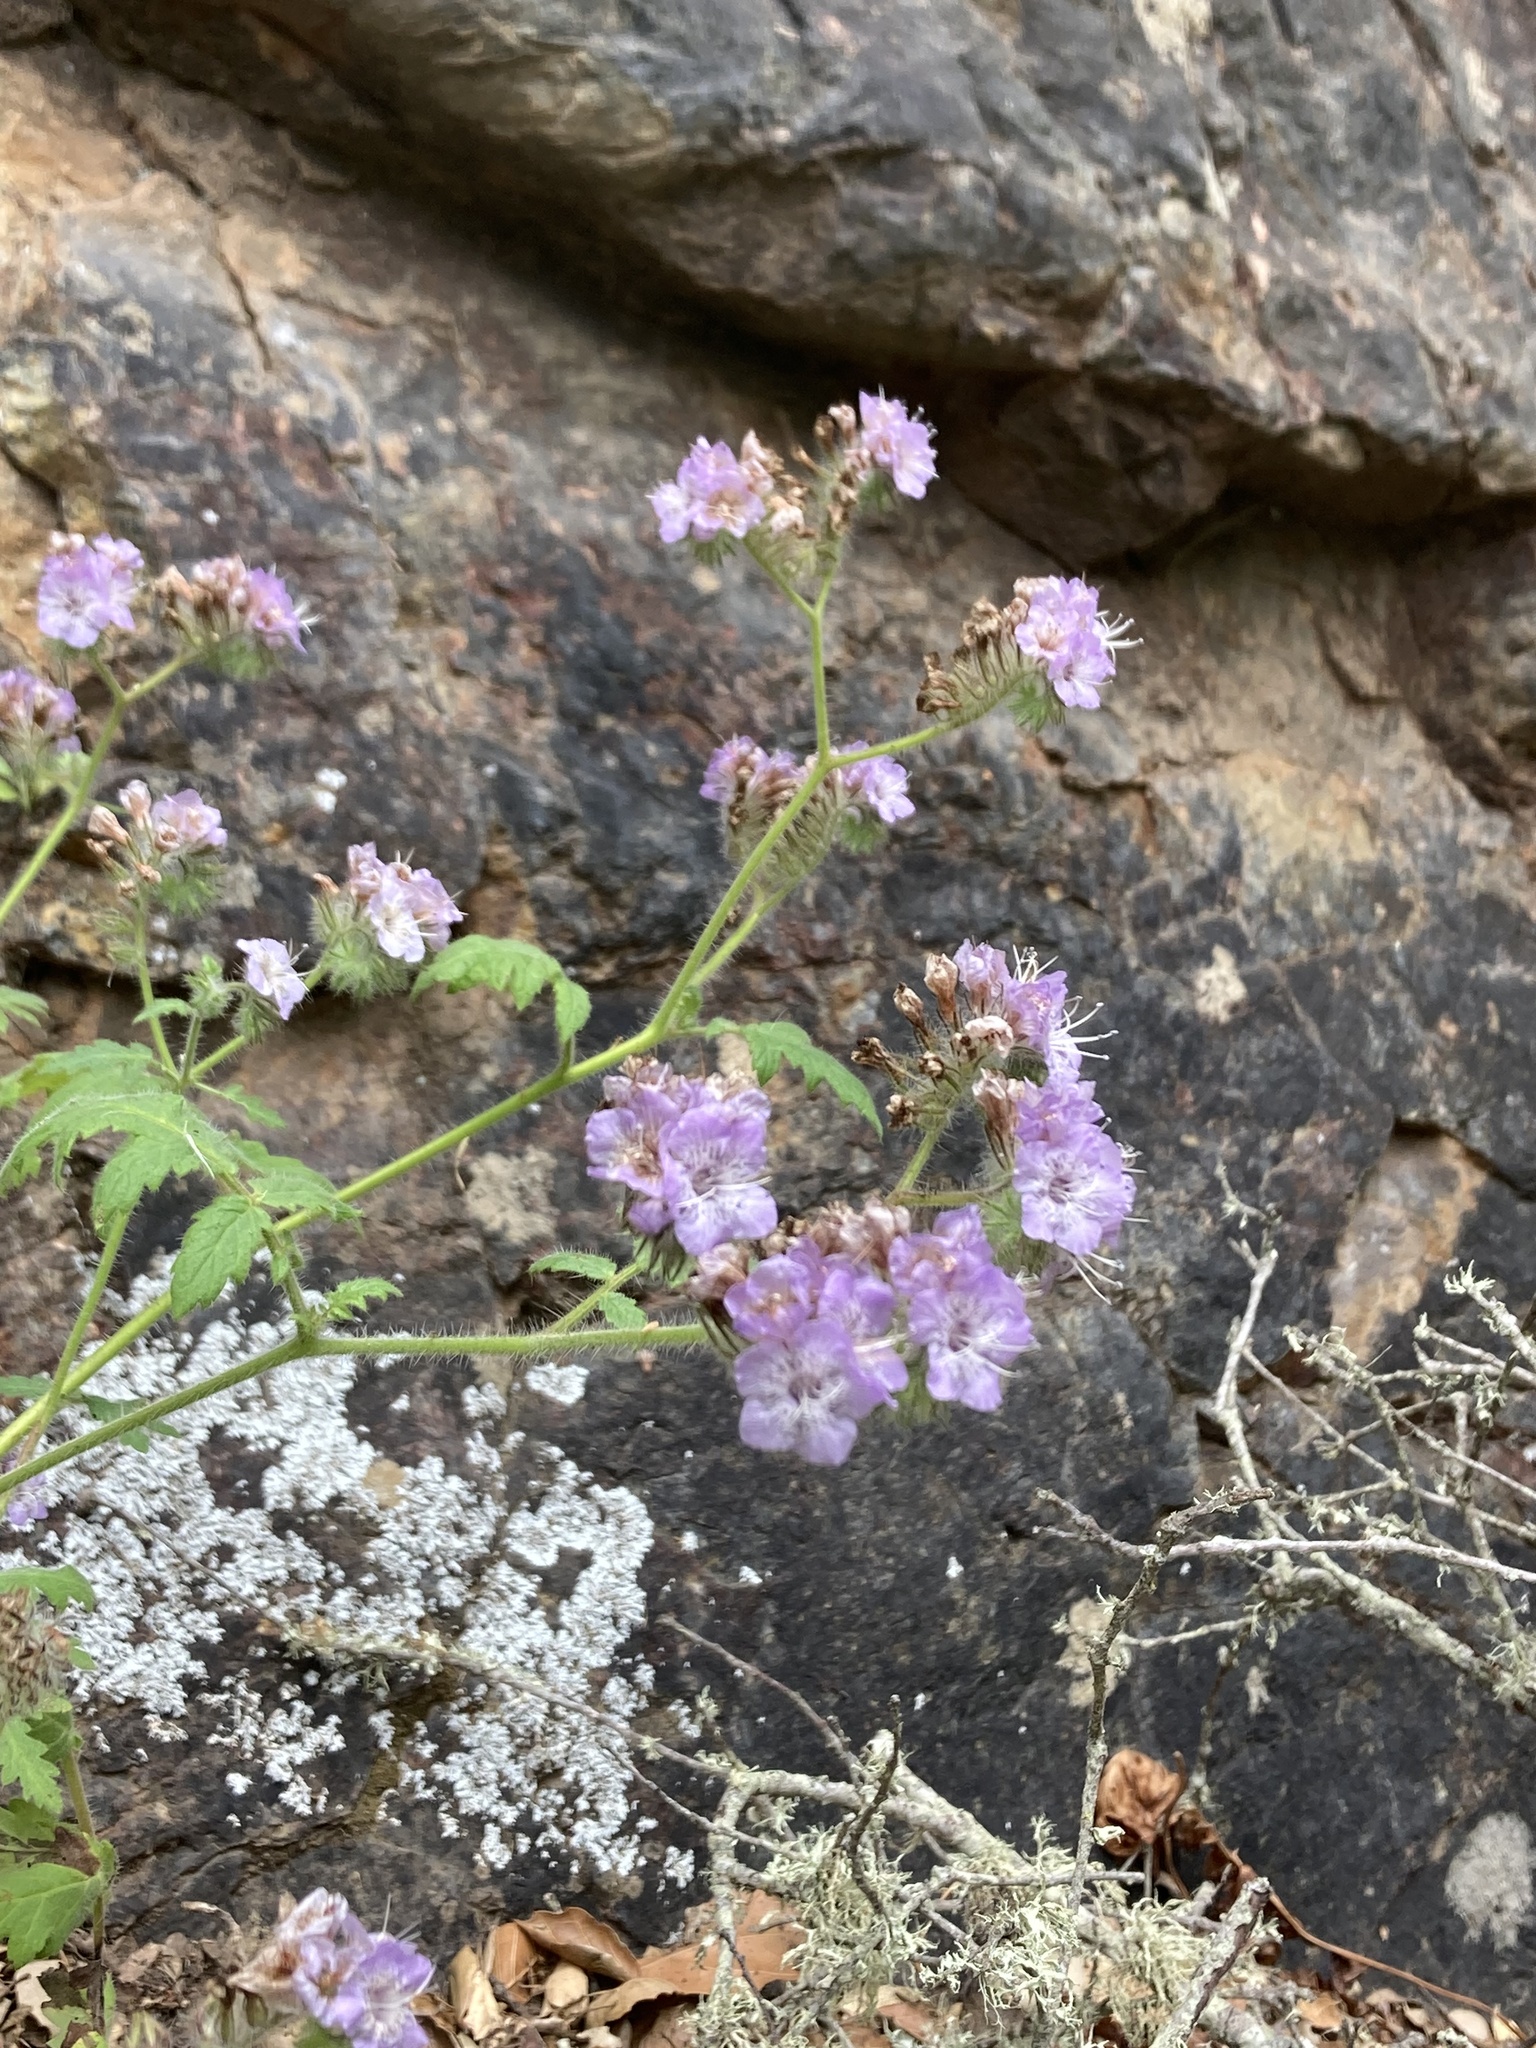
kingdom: Plantae
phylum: Tracheophyta
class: Magnoliopsida
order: Boraginales
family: Hydrophyllaceae
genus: Phacelia
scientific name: Phacelia cicutaria
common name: Caterpillar phacelia
